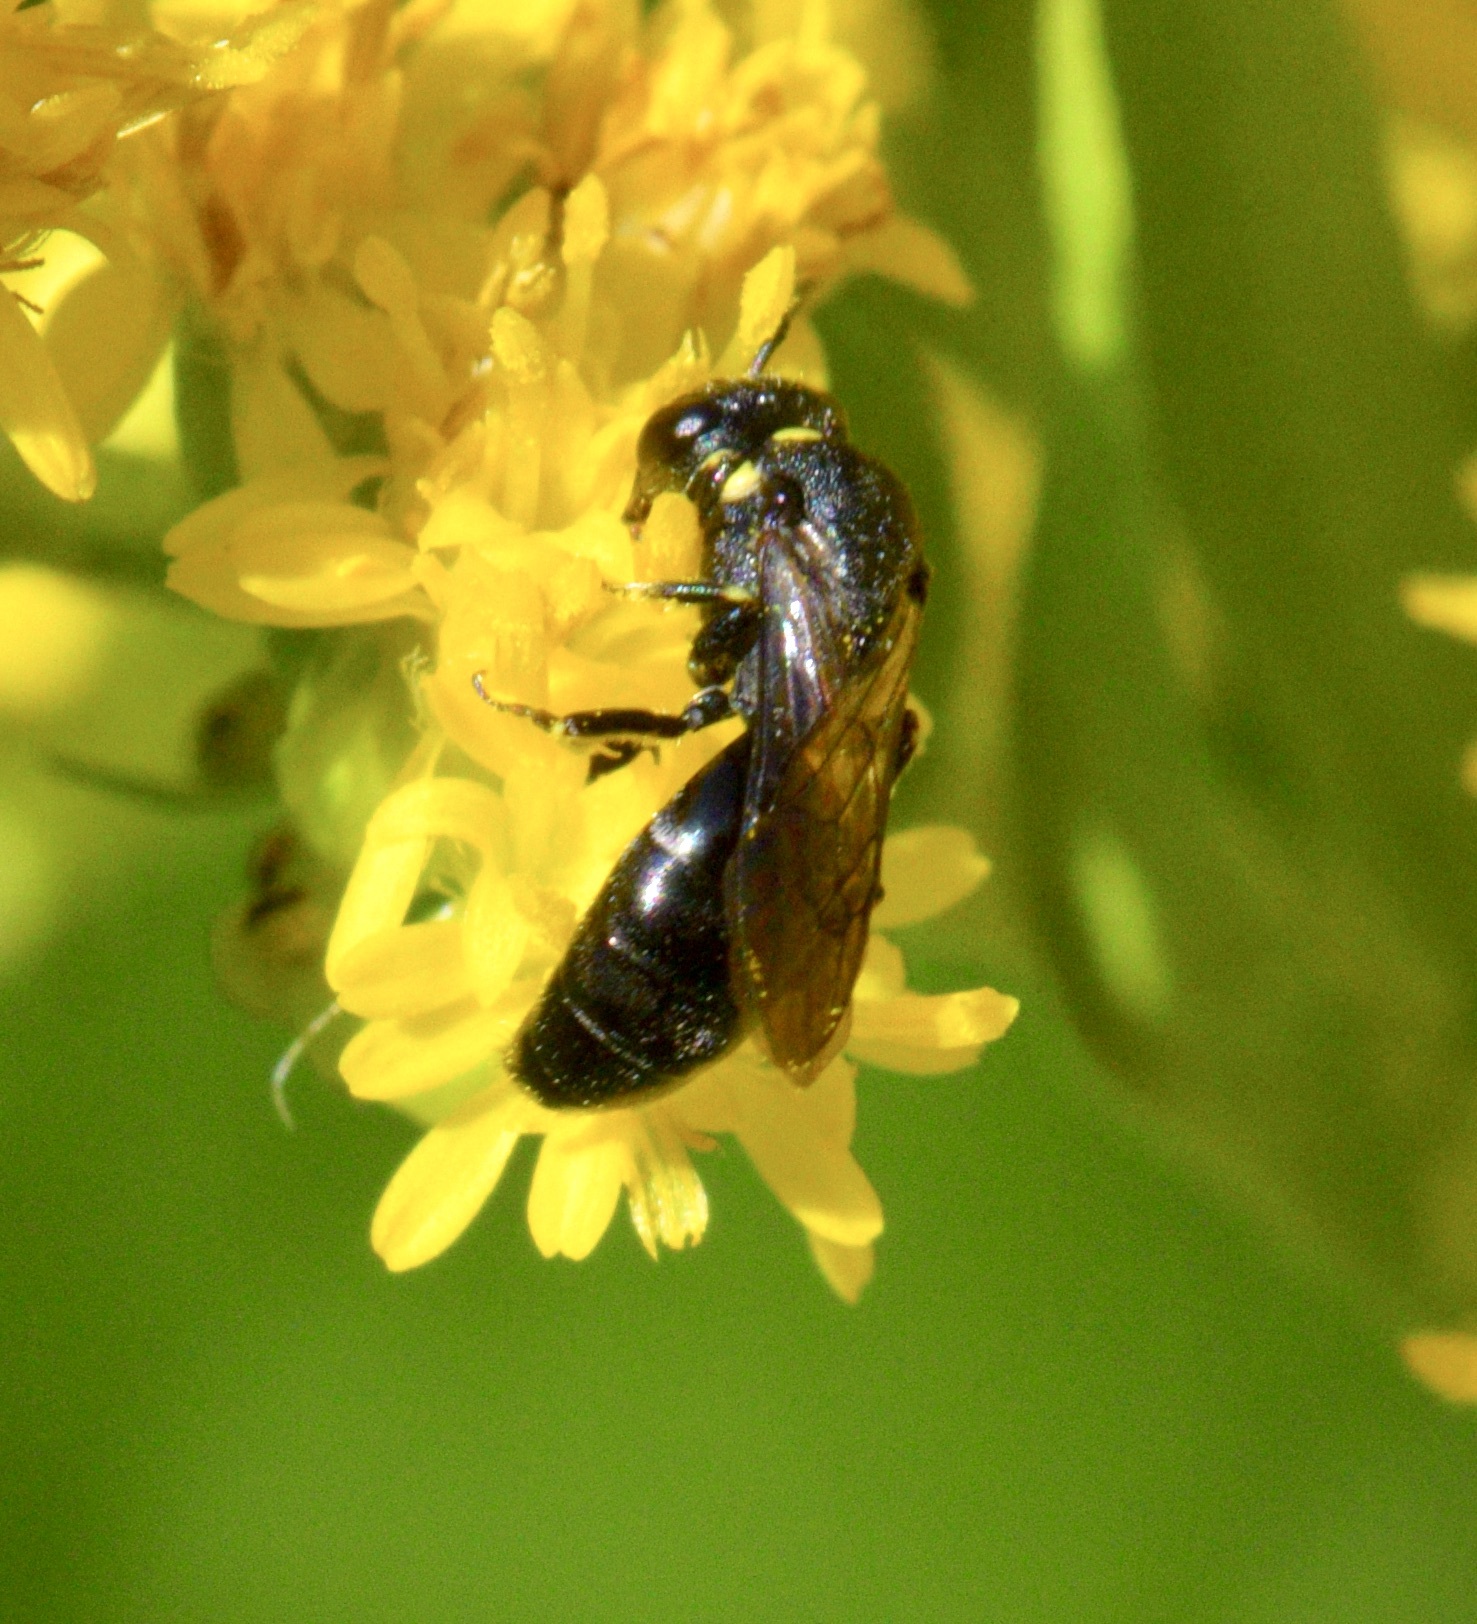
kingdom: Animalia
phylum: Arthropoda
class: Insecta
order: Hymenoptera
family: Colletidae
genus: Hylaeus
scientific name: Hylaeus modestus
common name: Yellow-faced bee
